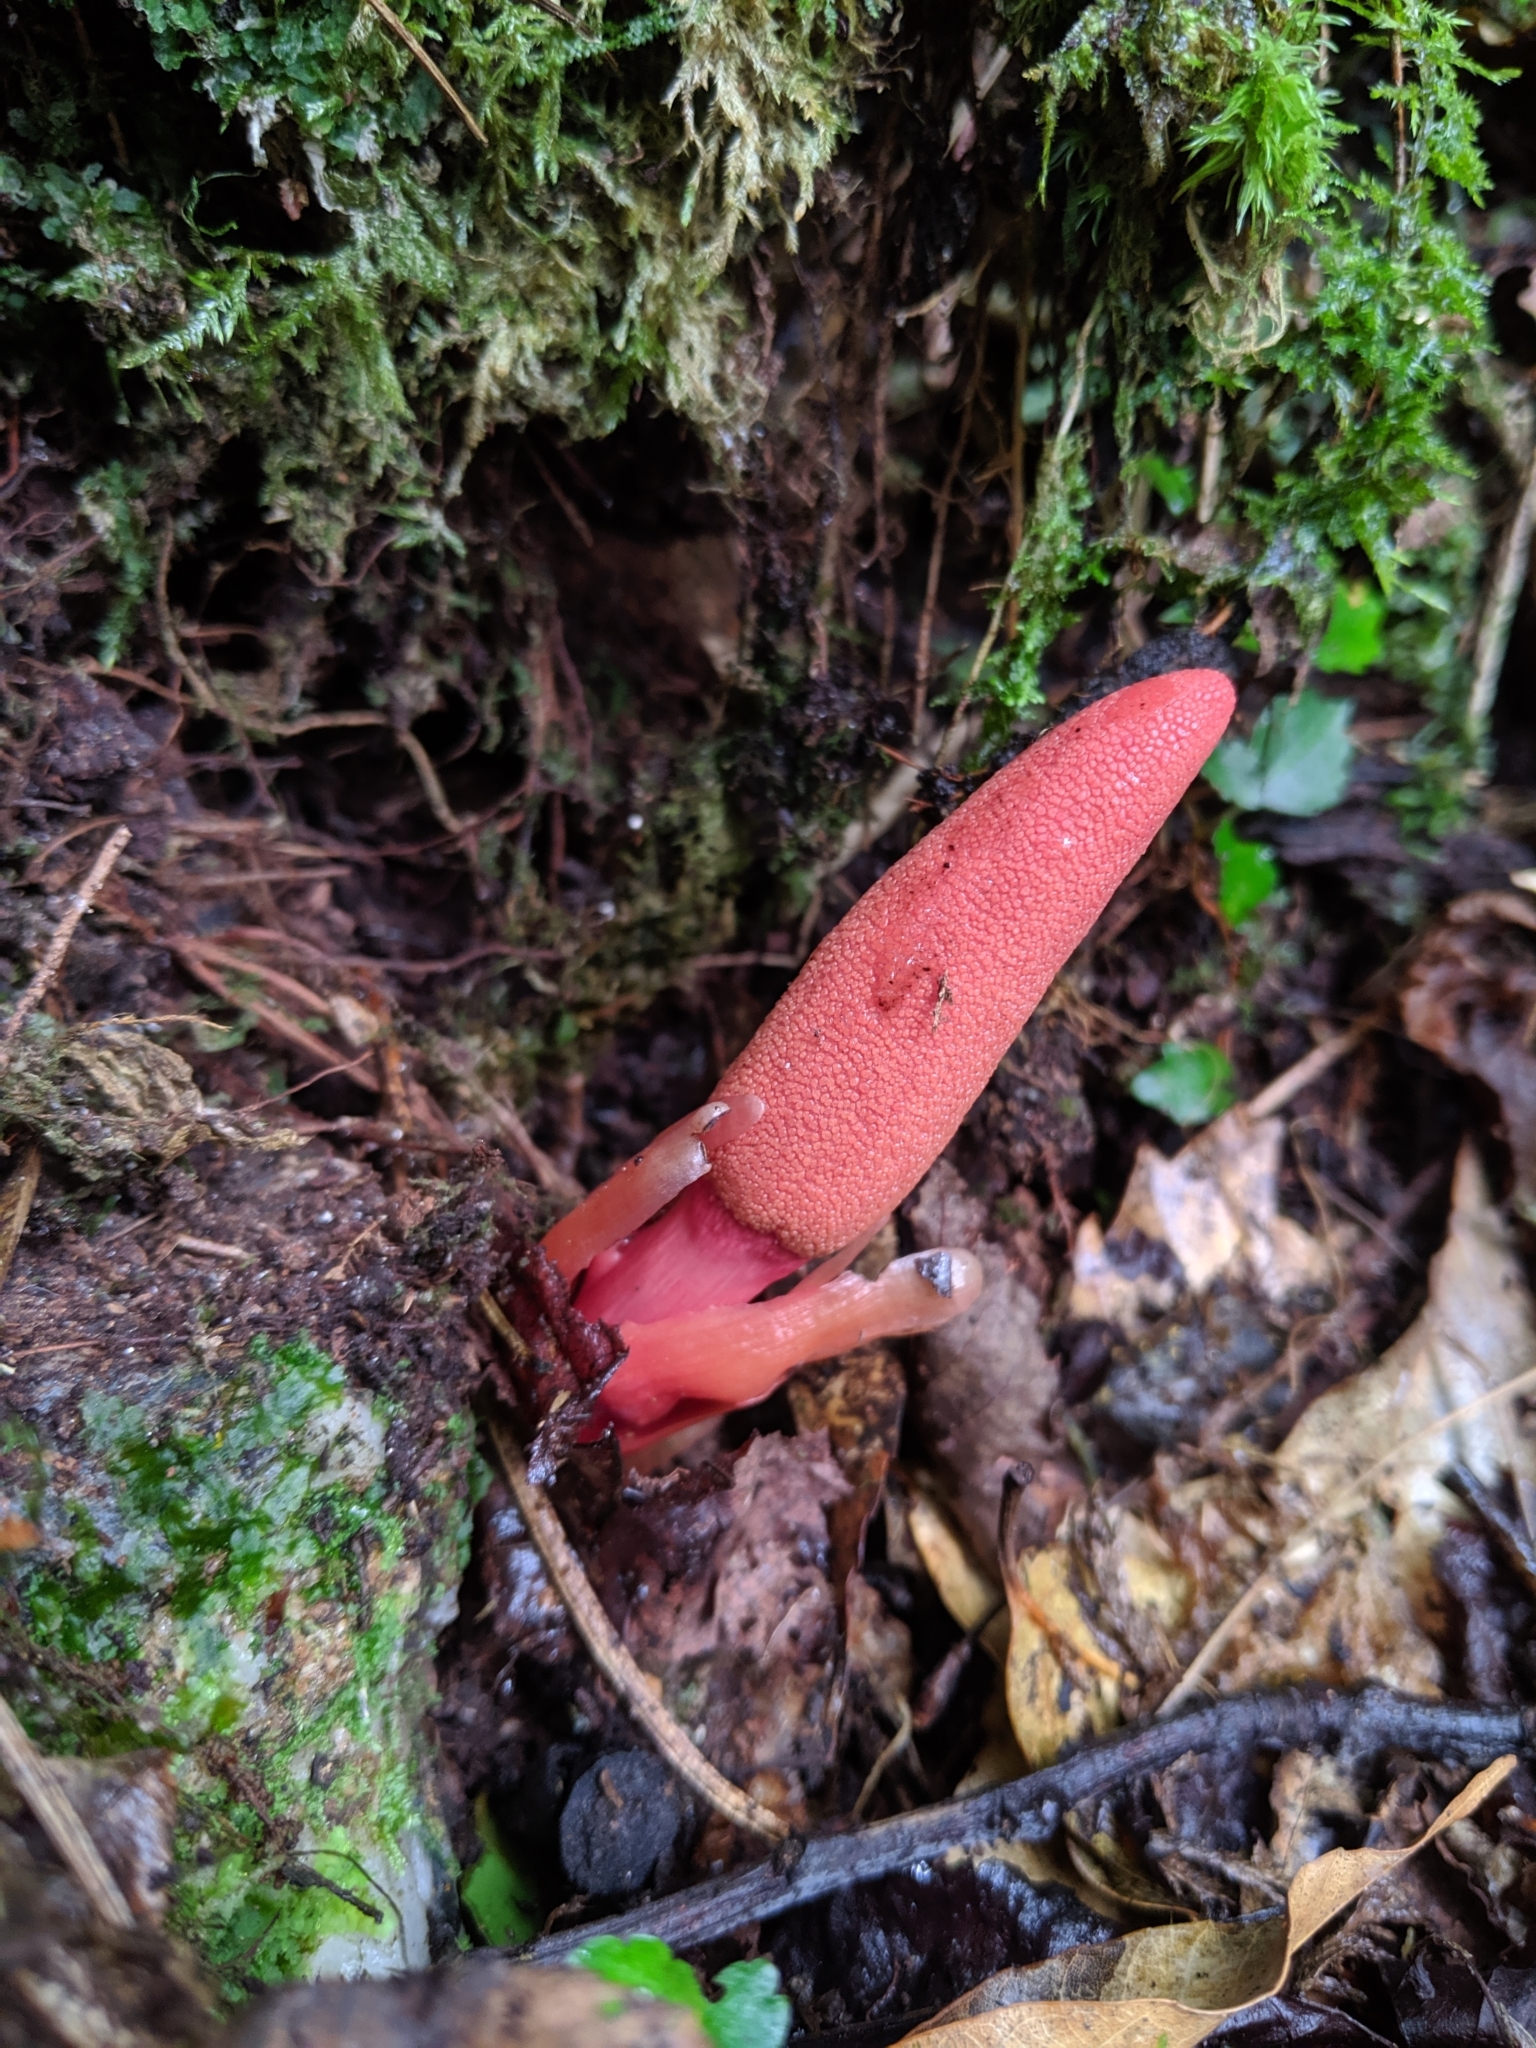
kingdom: Plantae
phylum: Tracheophyta
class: Magnoliopsida
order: Santalales
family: Balanophoraceae
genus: Balanophora
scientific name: Balanophora laxiflora
